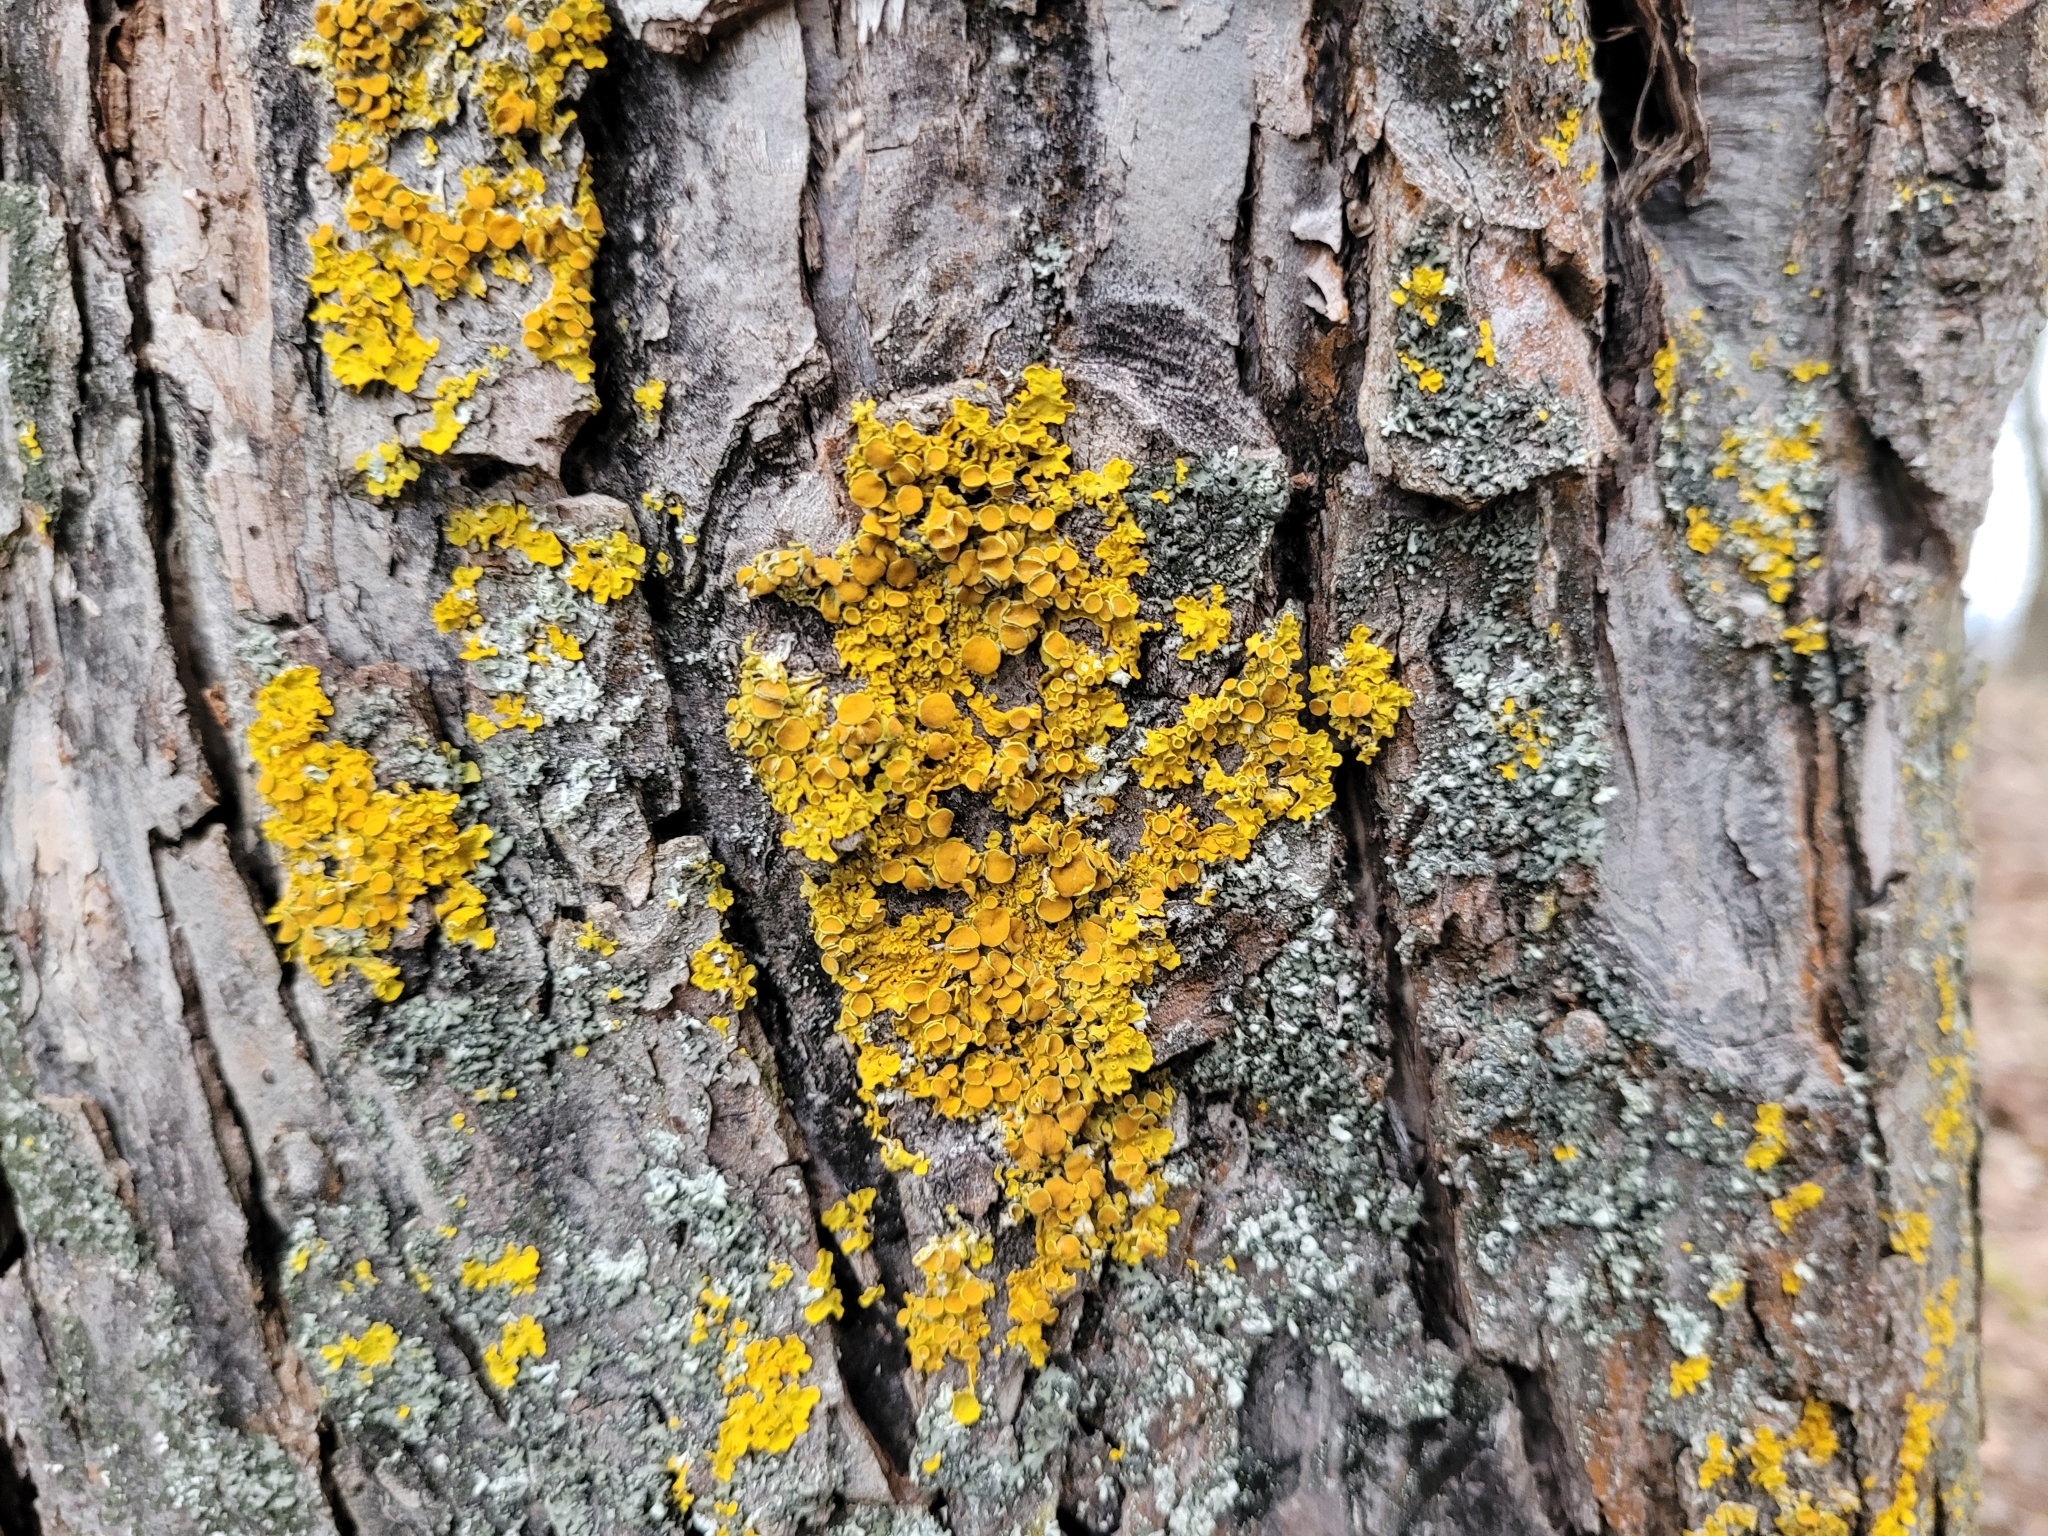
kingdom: Fungi
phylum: Ascomycota
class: Lecanoromycetes
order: Teloschistales
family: Teloschistaceae
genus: Xanthoria
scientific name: Xanthoria parietina
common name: Common orange lichen
